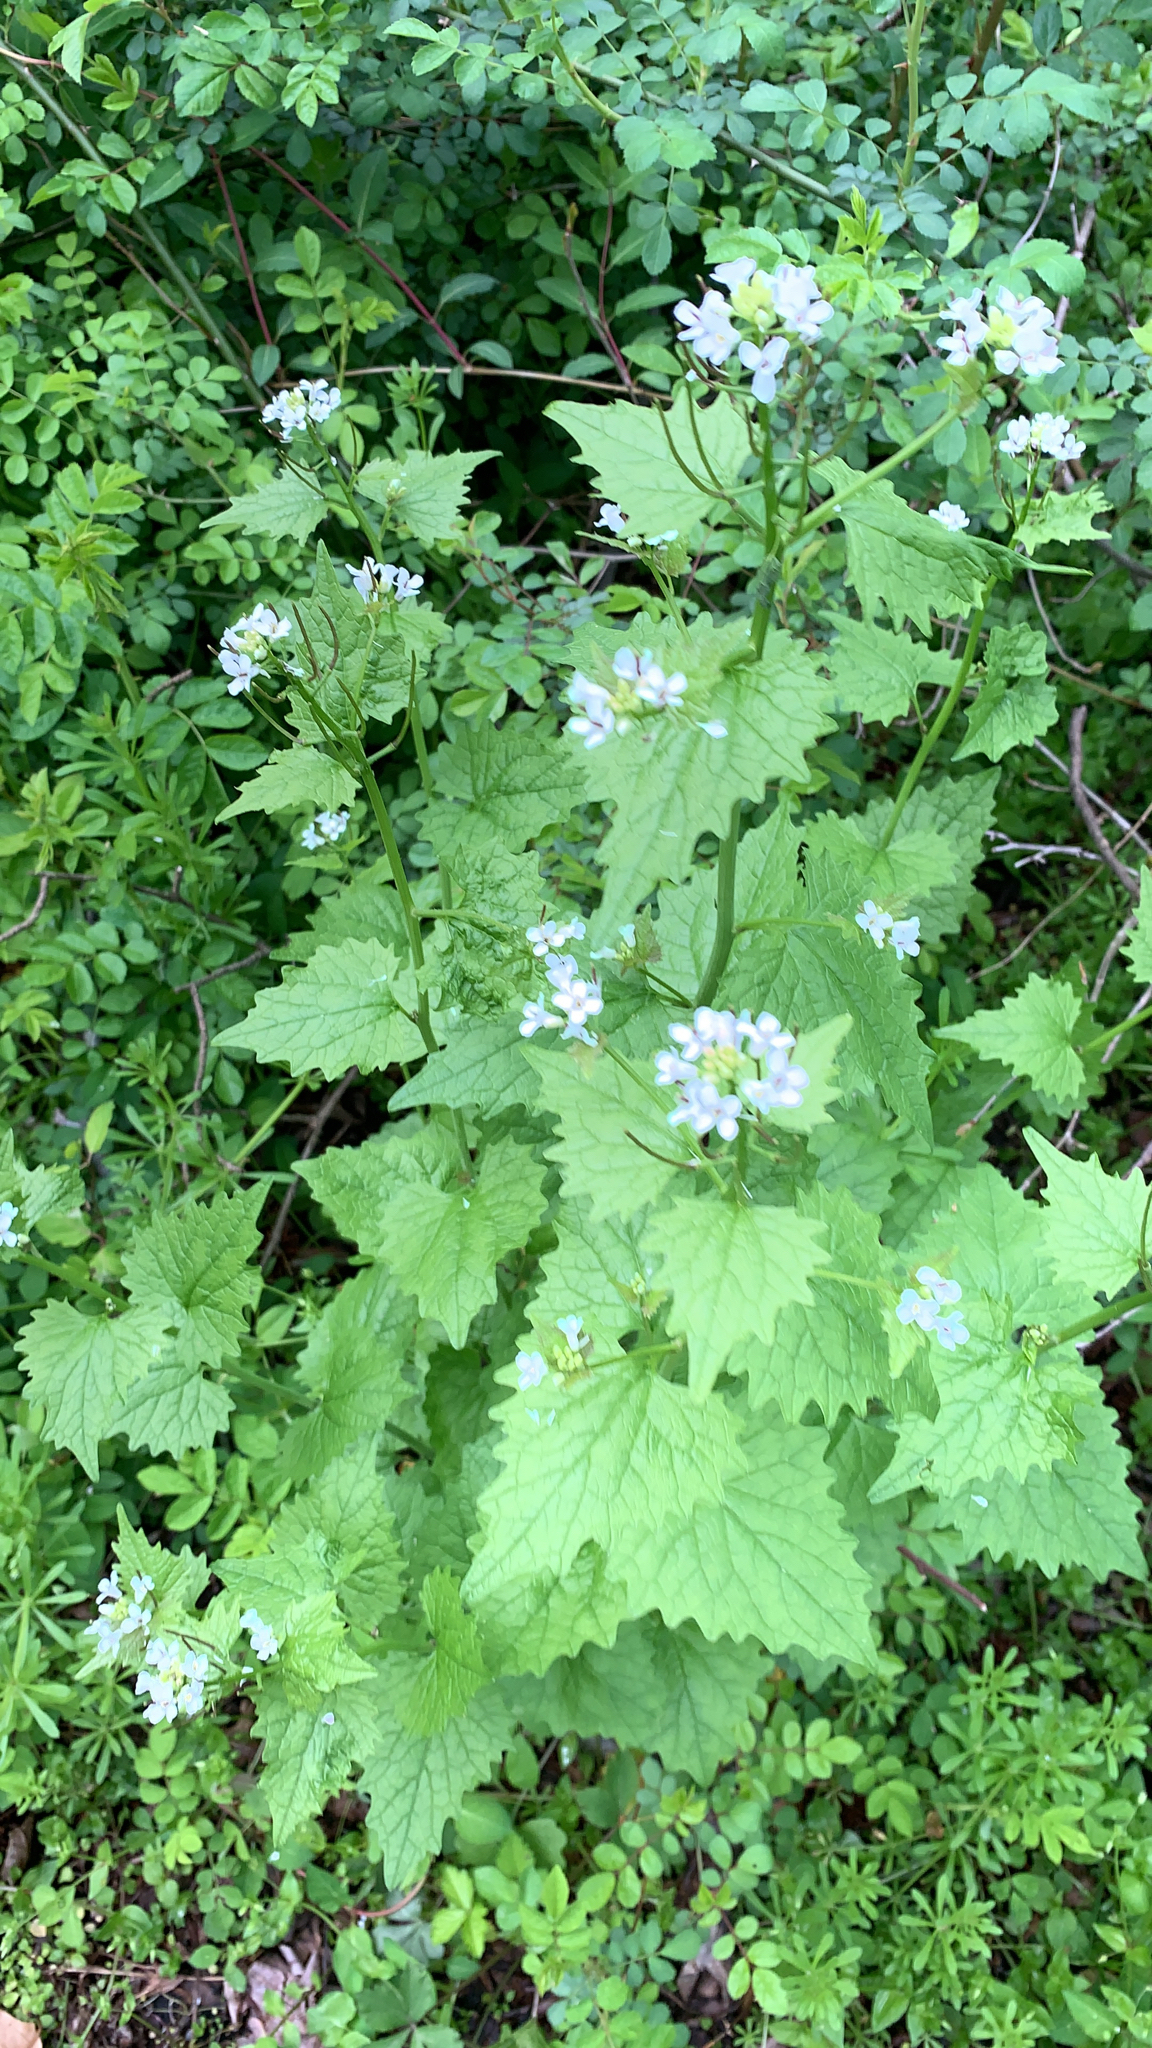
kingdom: Plantae
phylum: Tracheophyta
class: Magnoliopsida
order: Brassicales
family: Brassicaceae
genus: Alliaria
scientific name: Alliaria petiolata
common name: Garlic mustard
